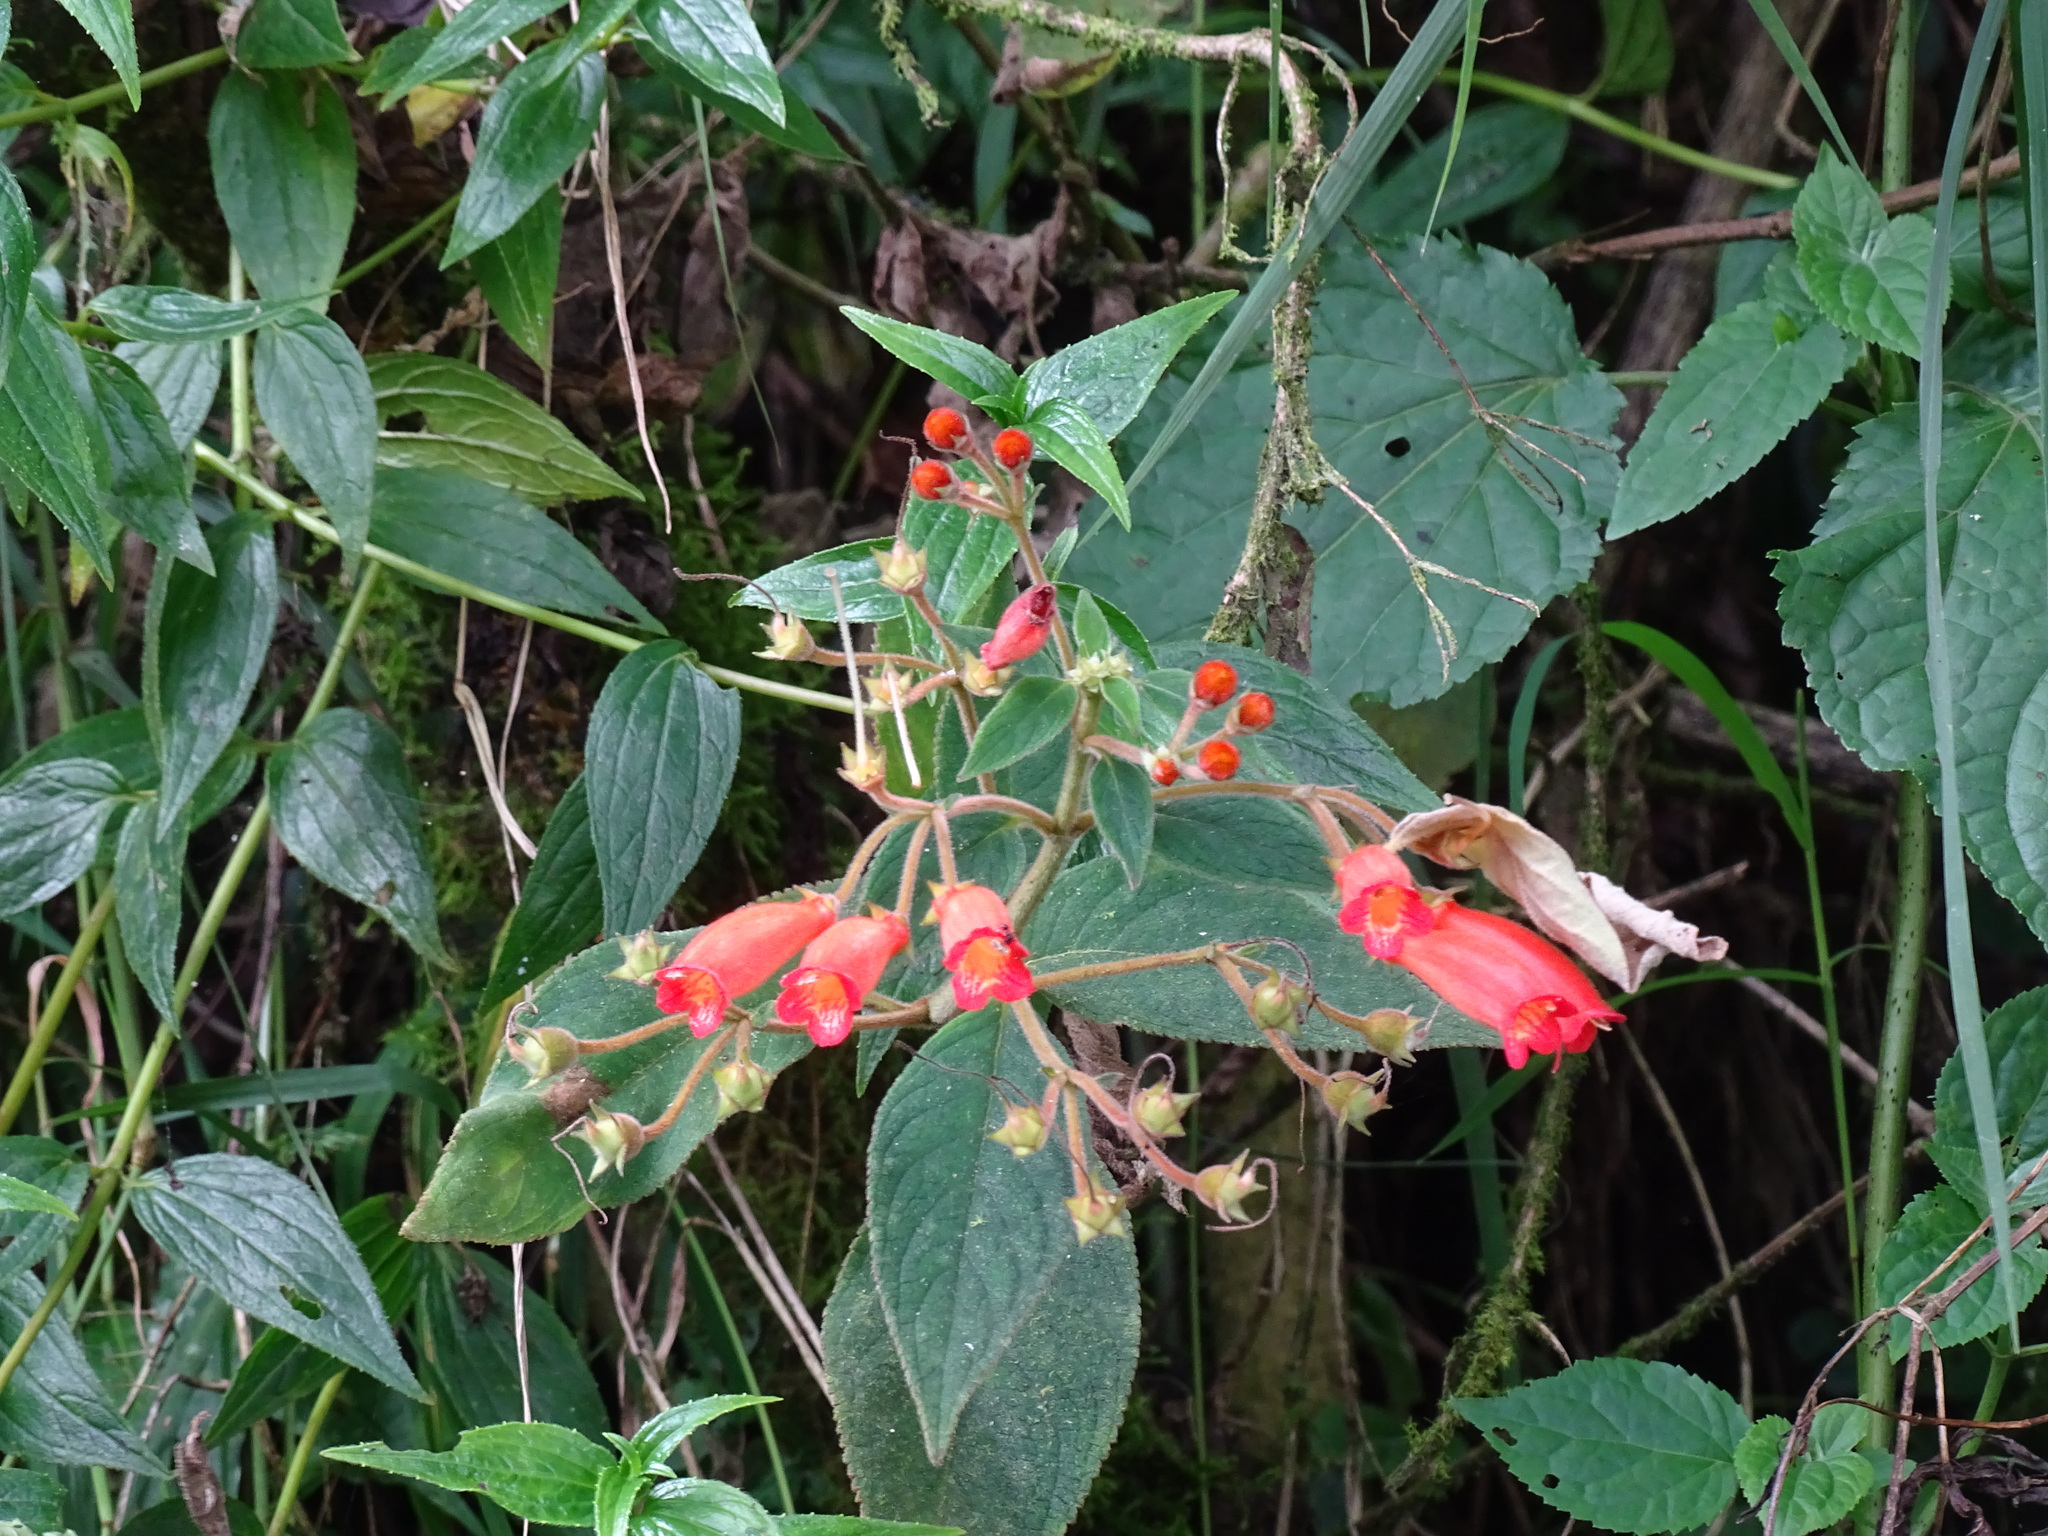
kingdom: Plantae
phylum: Tracheophyta
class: Magnoliopsida
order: Lamiales
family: Gesneriaceae
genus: Moussonia
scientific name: Moussonia deppeana
